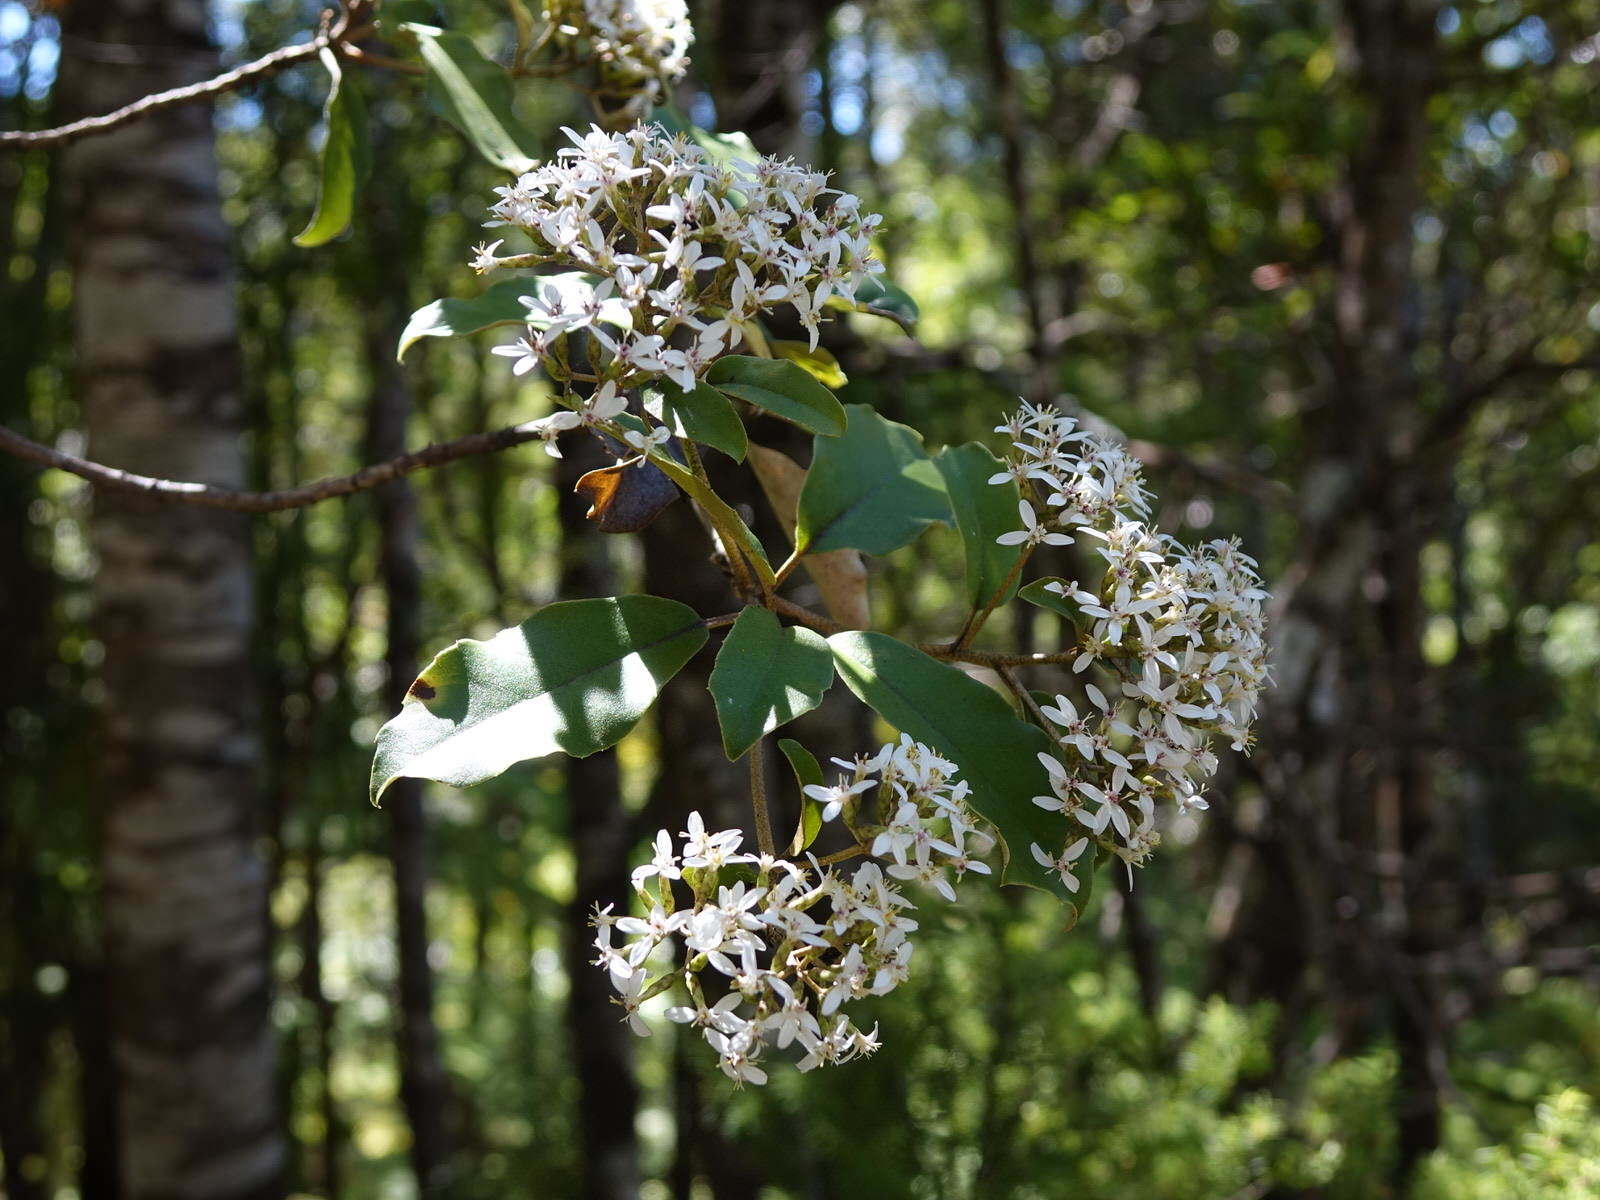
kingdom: Plantae
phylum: Tracheophyta
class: Magnoliopsida
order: Asterales
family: Asteraceae
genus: Olearia
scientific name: Olearia furfuracea
